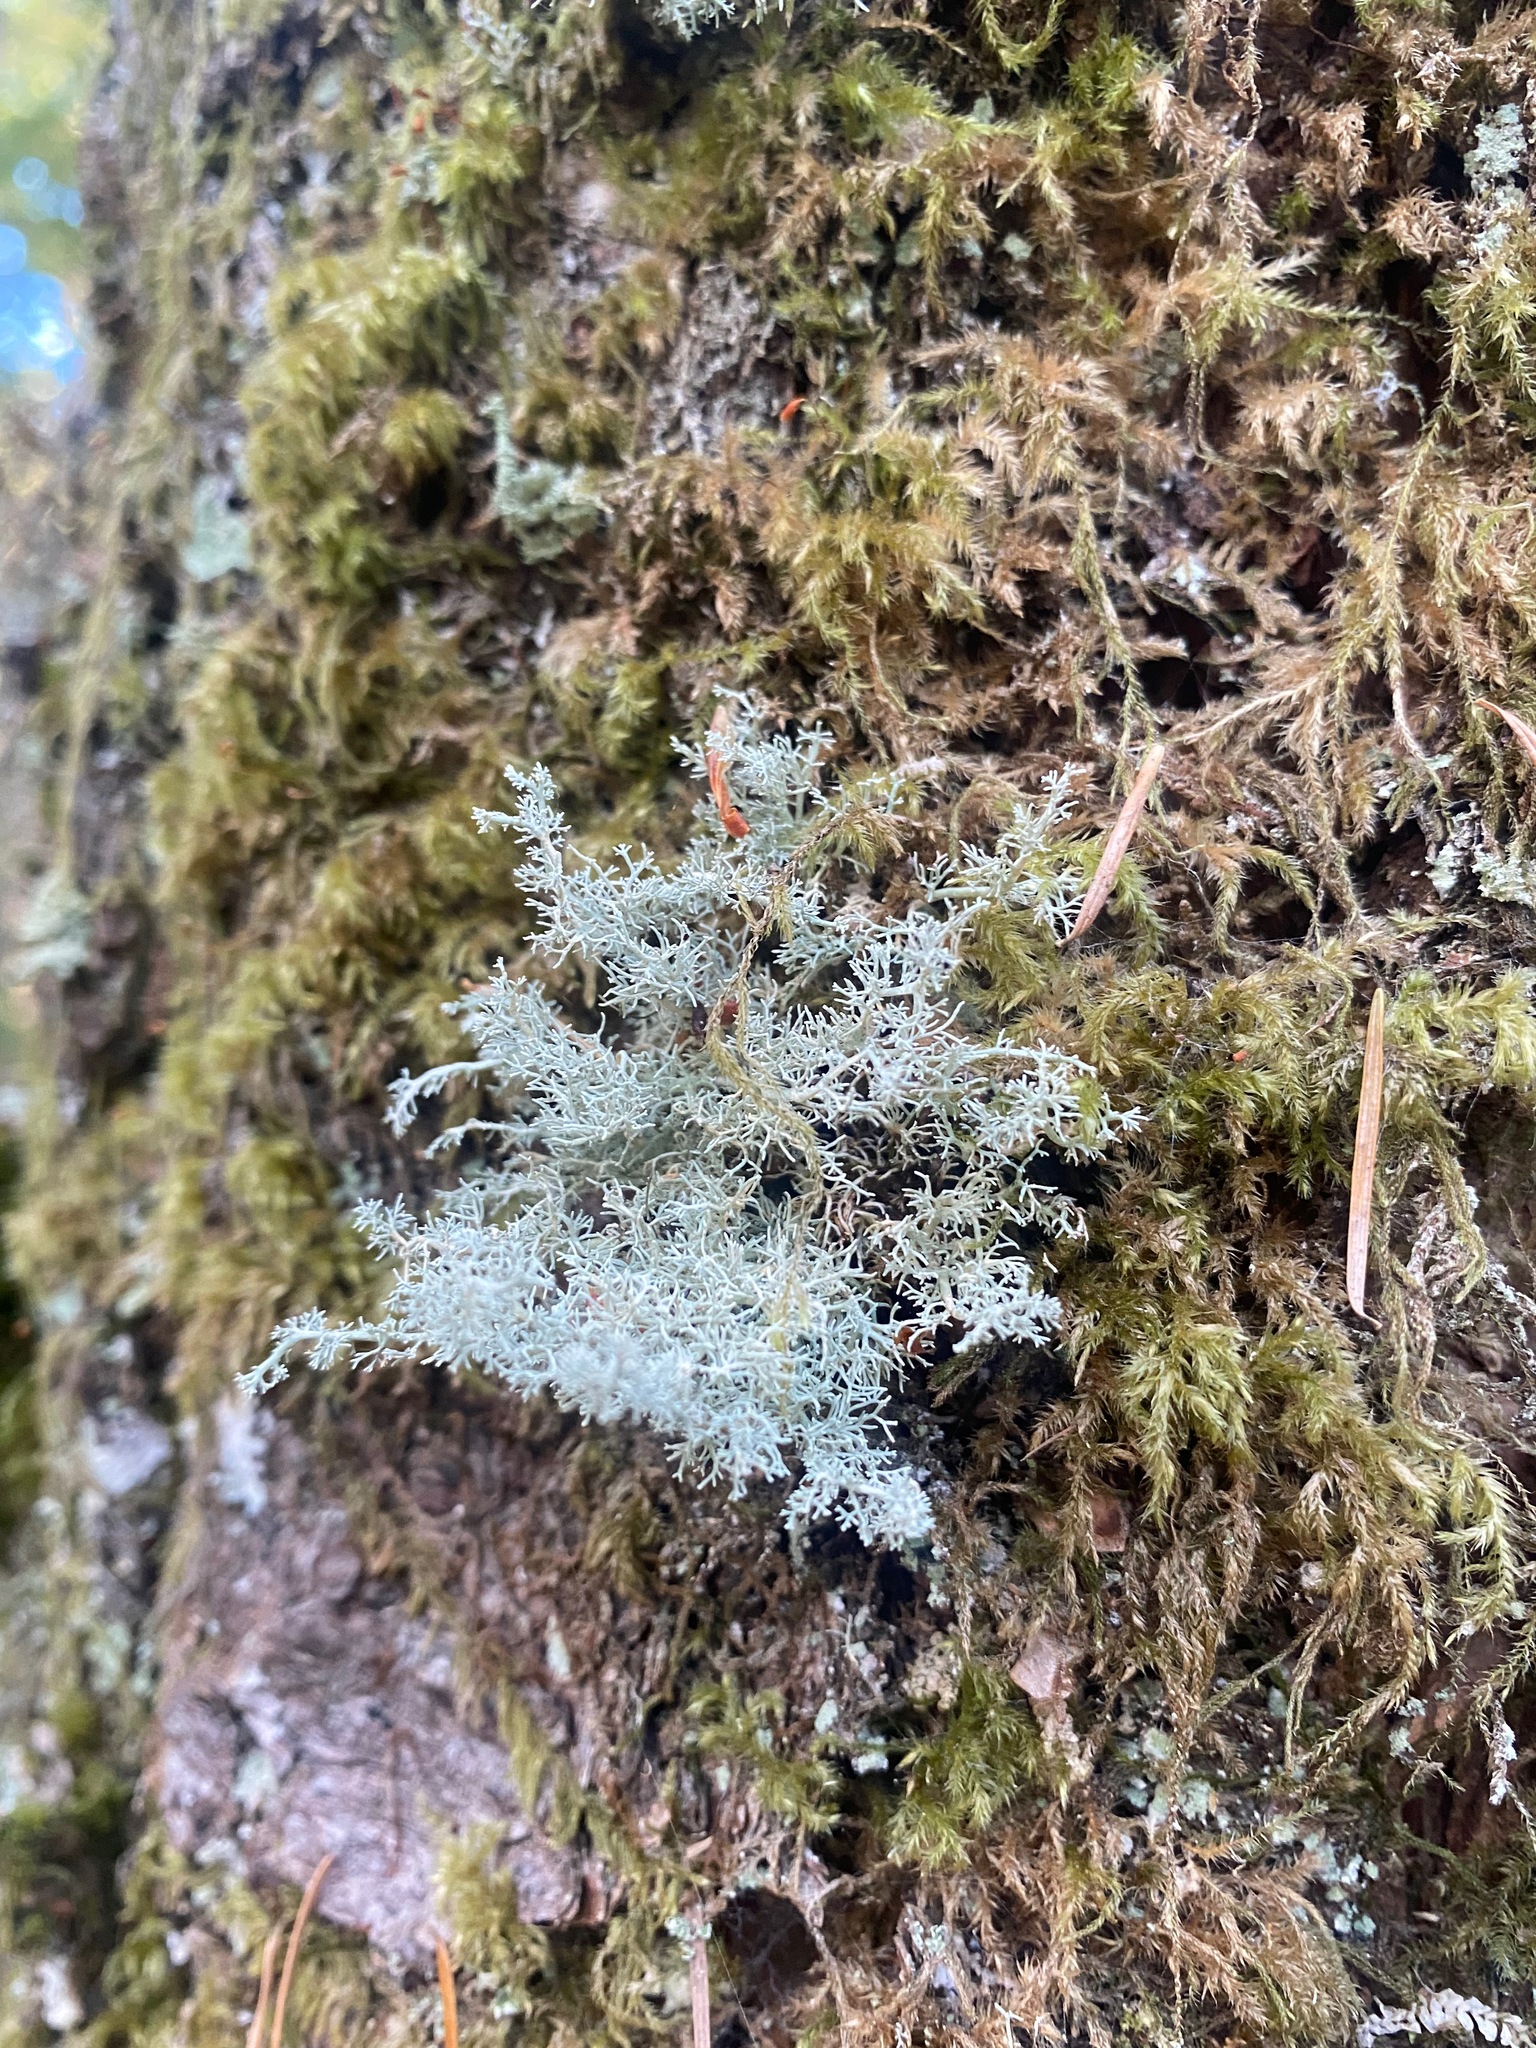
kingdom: Fungi
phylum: Ascomycota
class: Lecanoromycetes
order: Lecanorales
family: Sphaerophoraceae
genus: Sphaerophorus
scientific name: Sphaerophorus globosus
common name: Globe ball lichen
